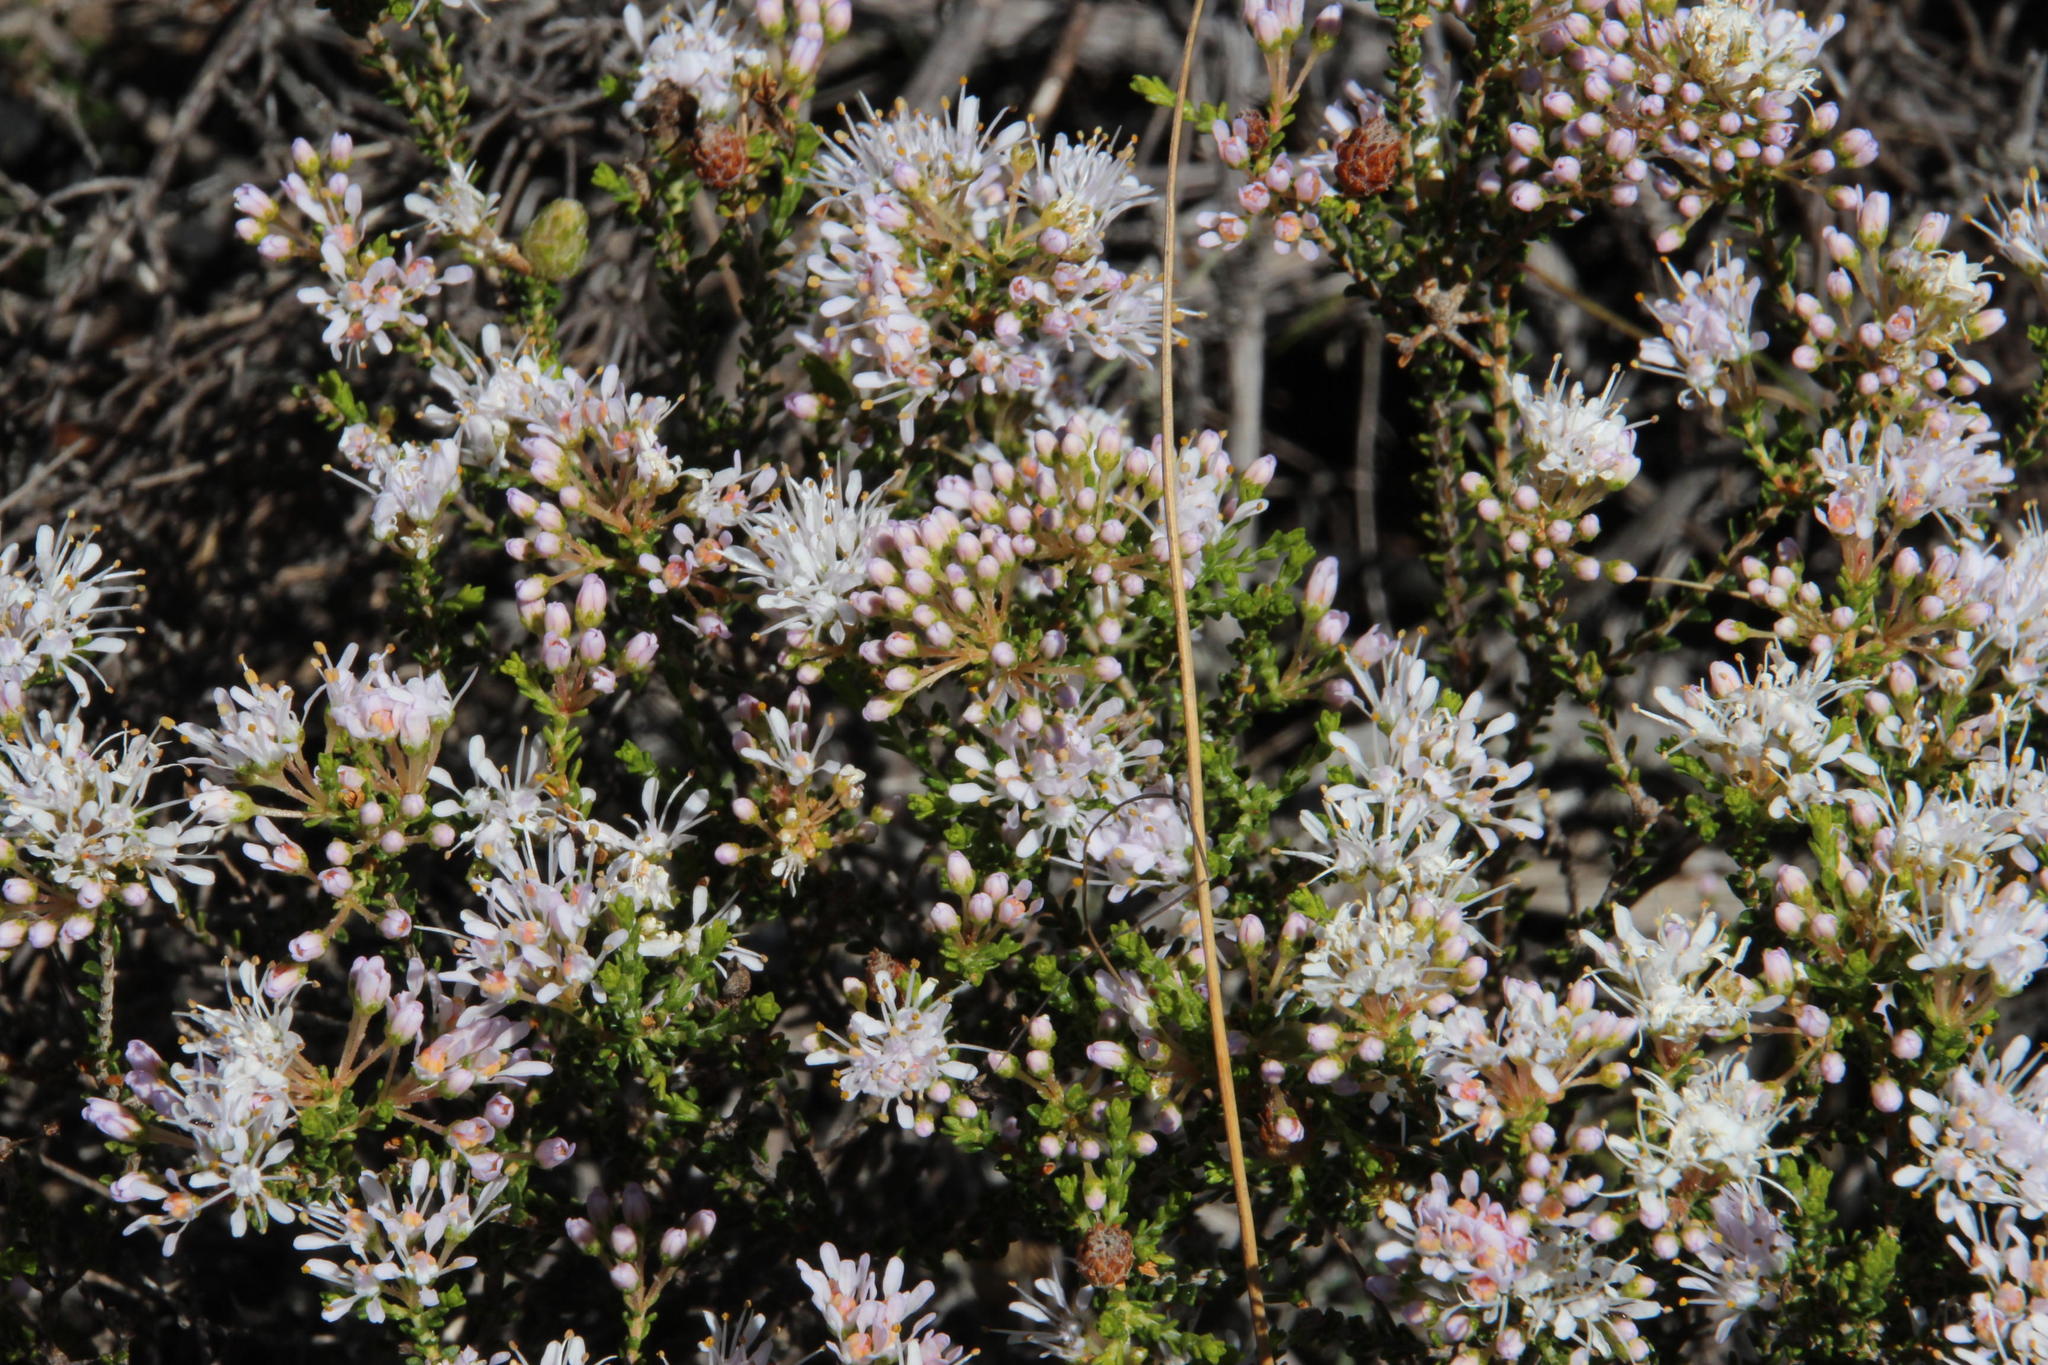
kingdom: Plantae
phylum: Tracheophyta
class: Magnoliopsida
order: Sapindales
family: Rutaceae
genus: Agathosma
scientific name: Agathosma crassifolia
